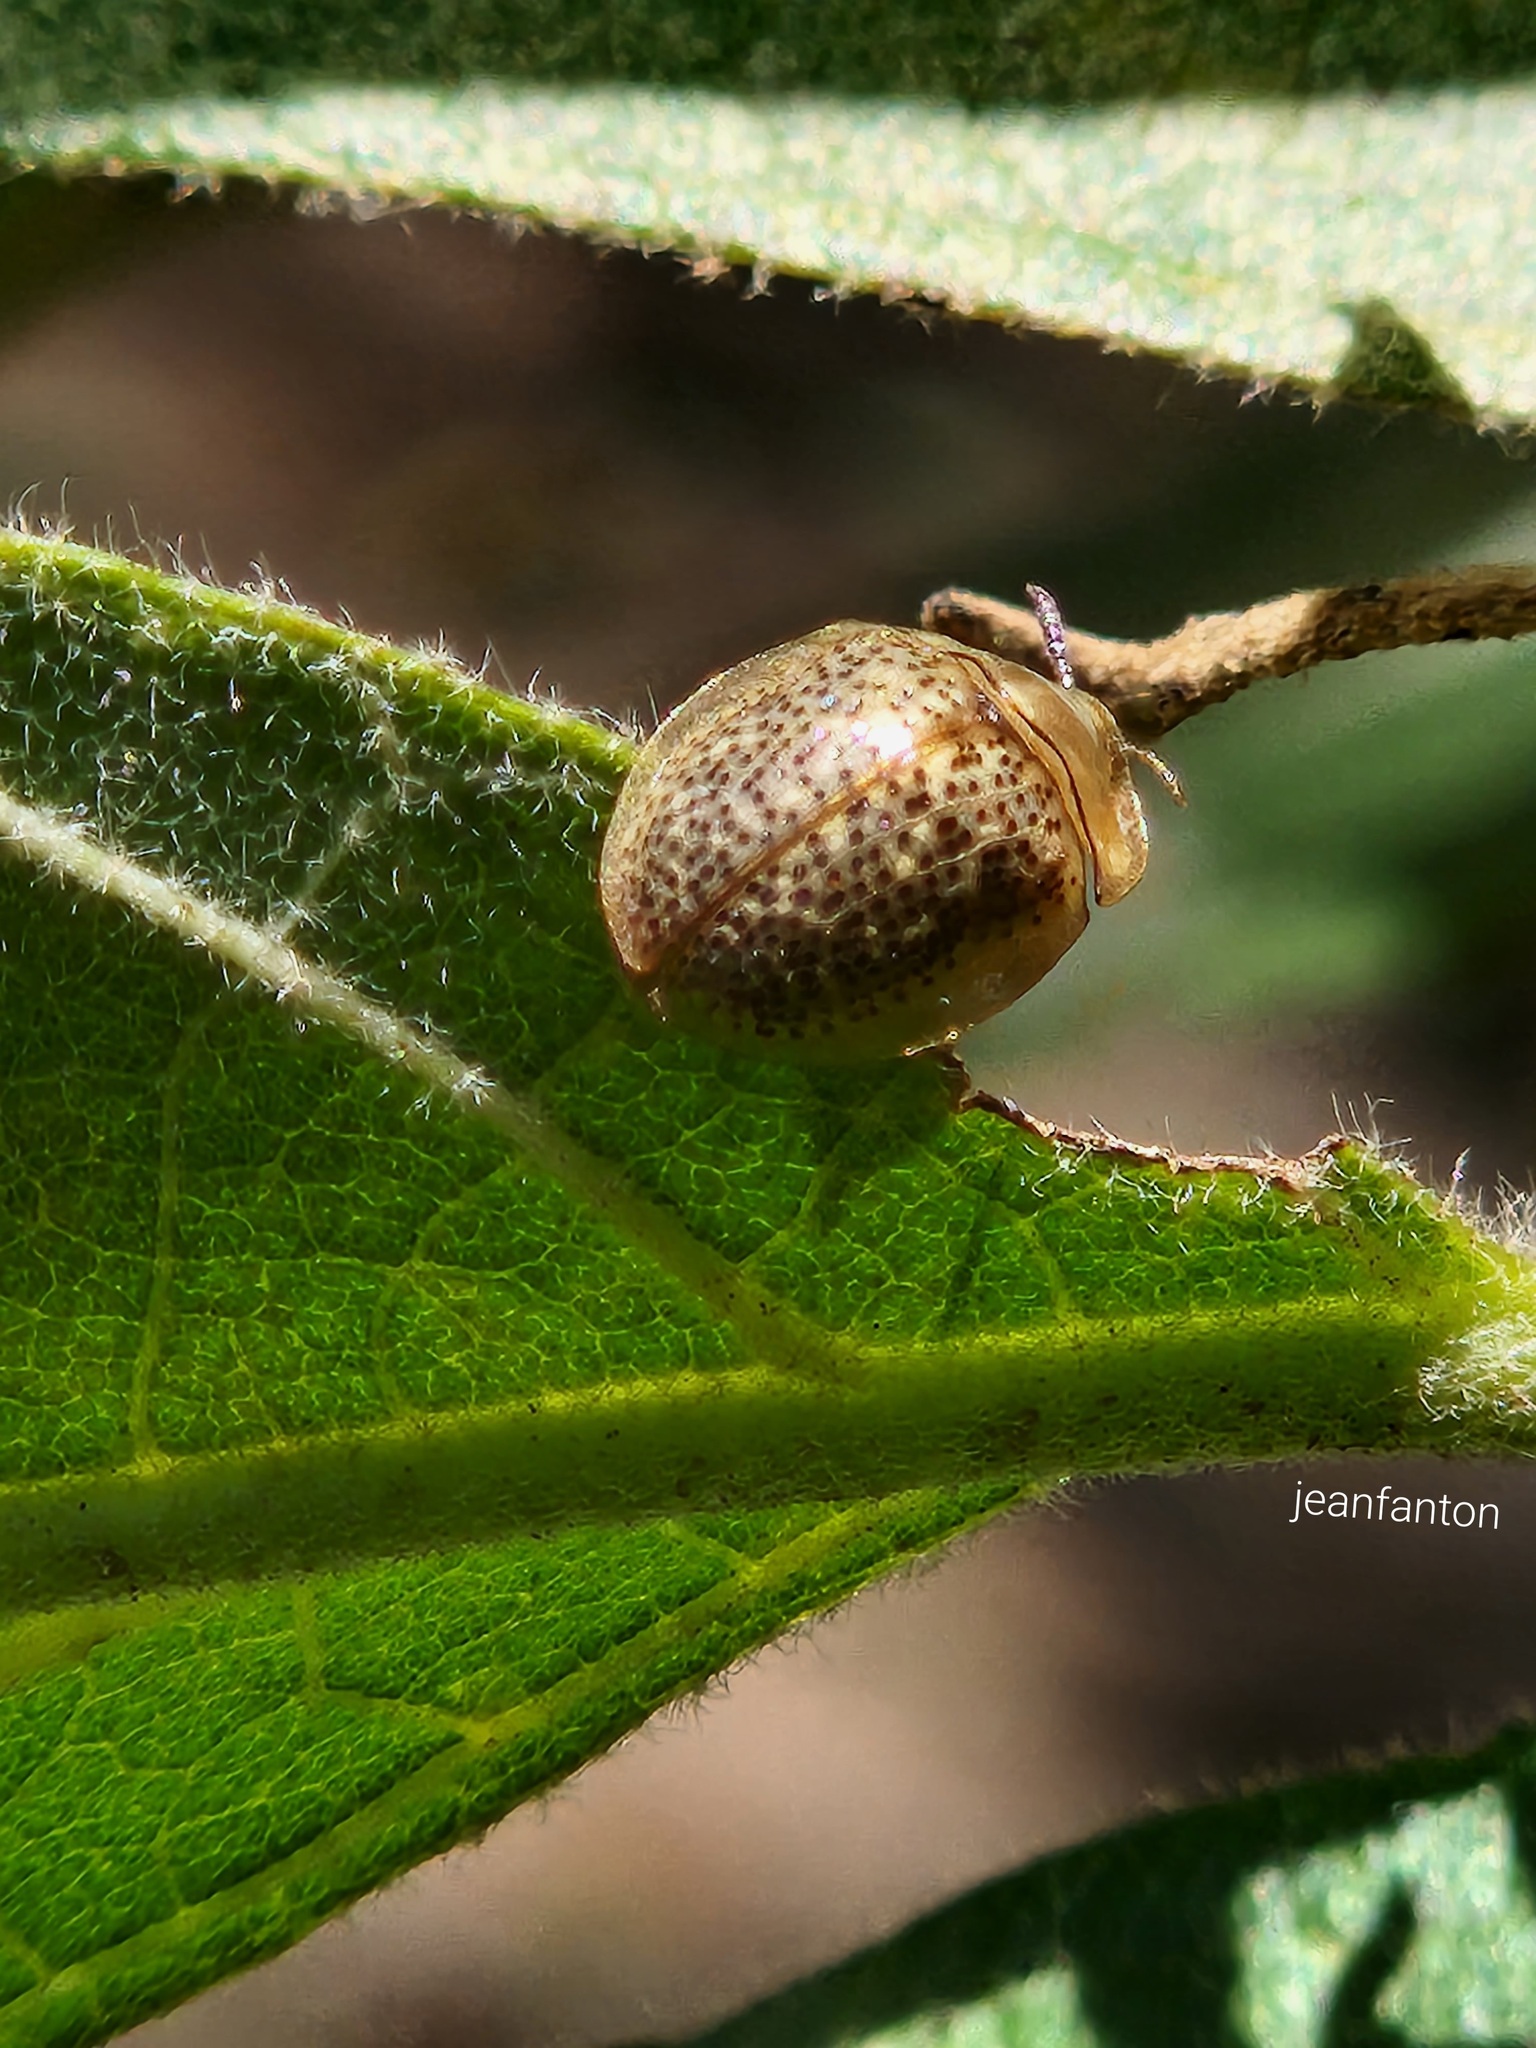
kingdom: Animalia
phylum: Arthropoda
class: Insecta
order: Coleoptera
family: Chrysomelidae
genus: Cistudinella
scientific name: Cistudinella obducta
